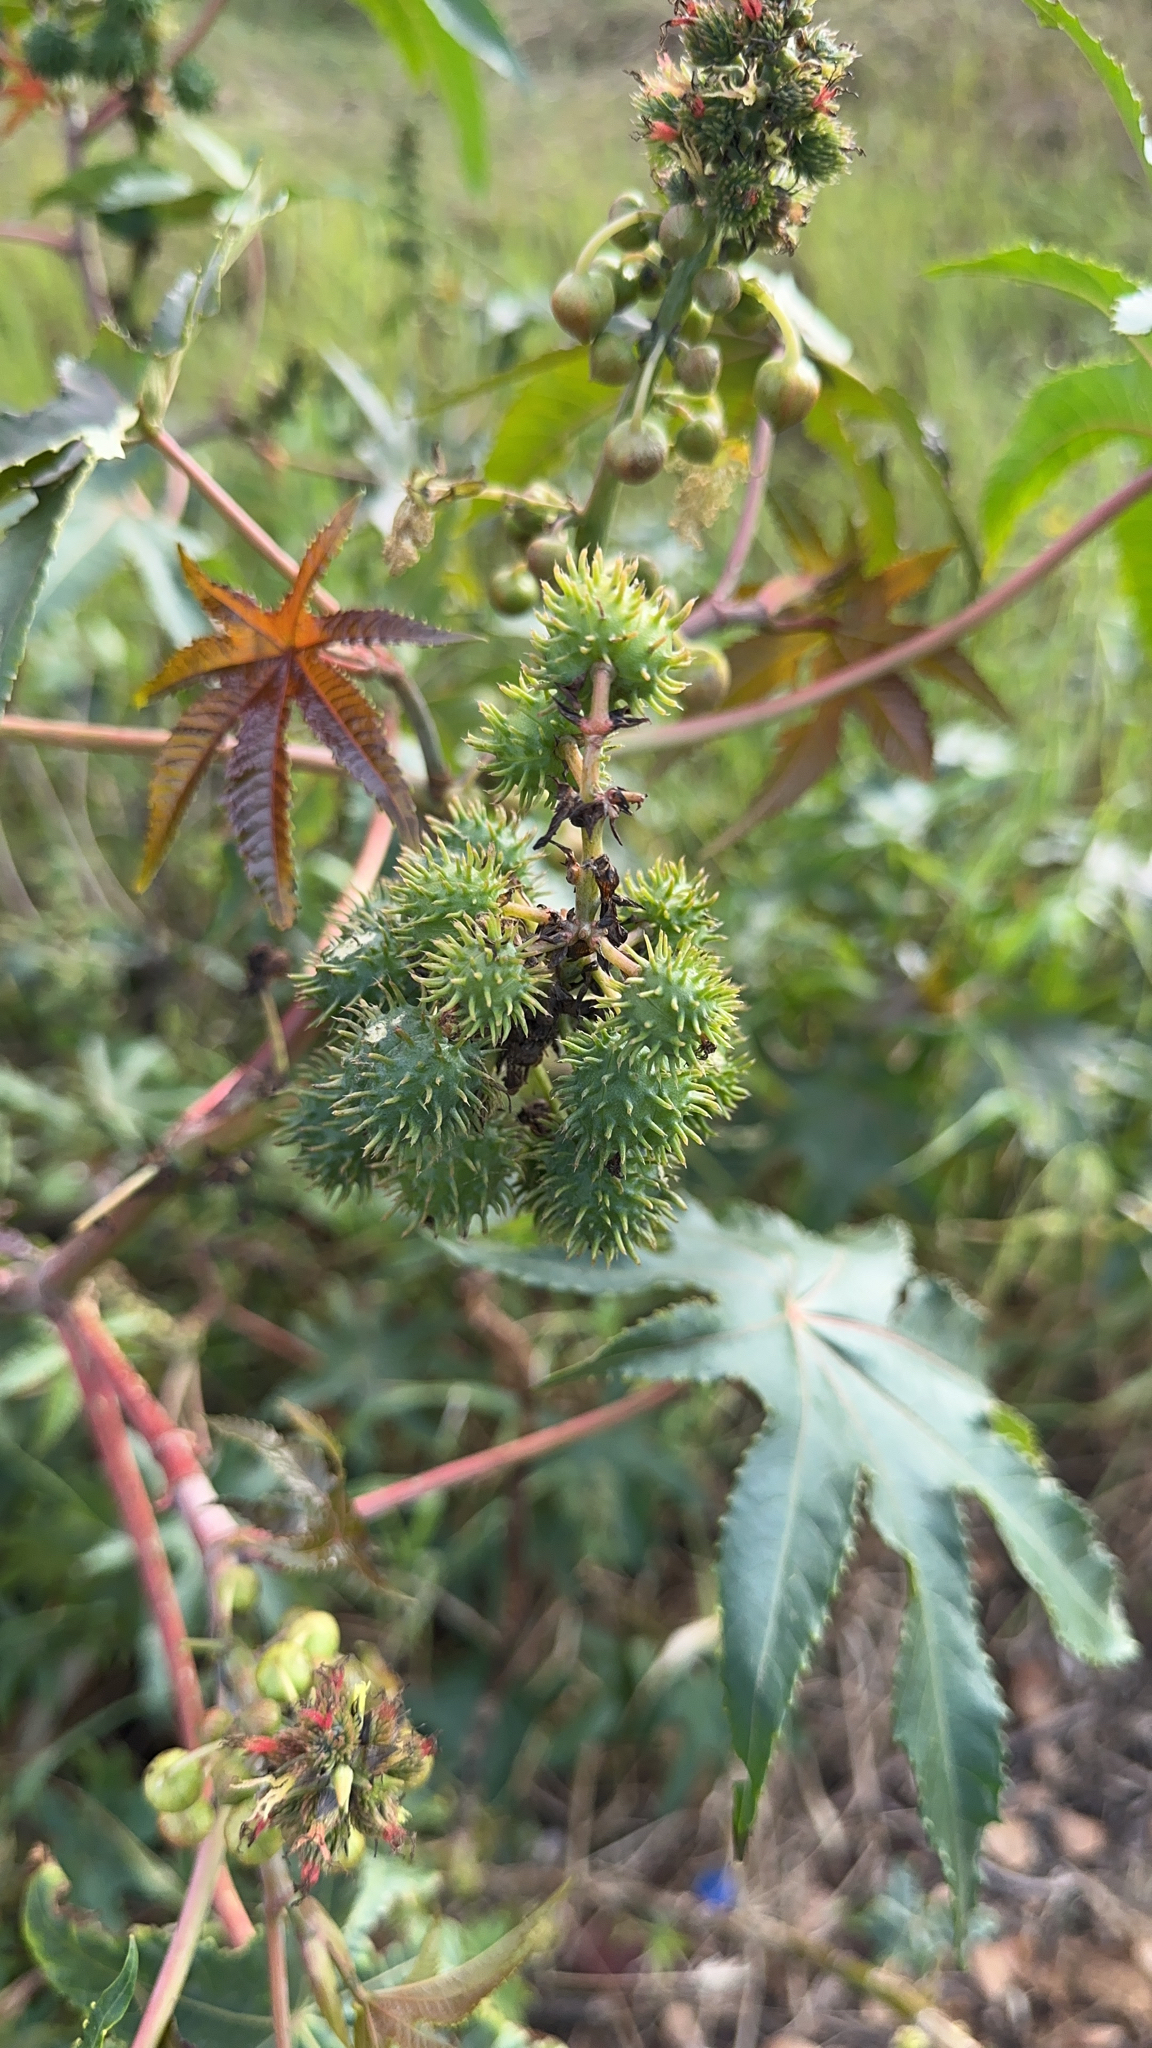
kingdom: Plantae
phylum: Tracheophyta
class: Magnoliopsida
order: Malpighiales
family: Euphorbiaceae
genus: Ricinus
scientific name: Ricinus communis
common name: Castor-oil-plant
